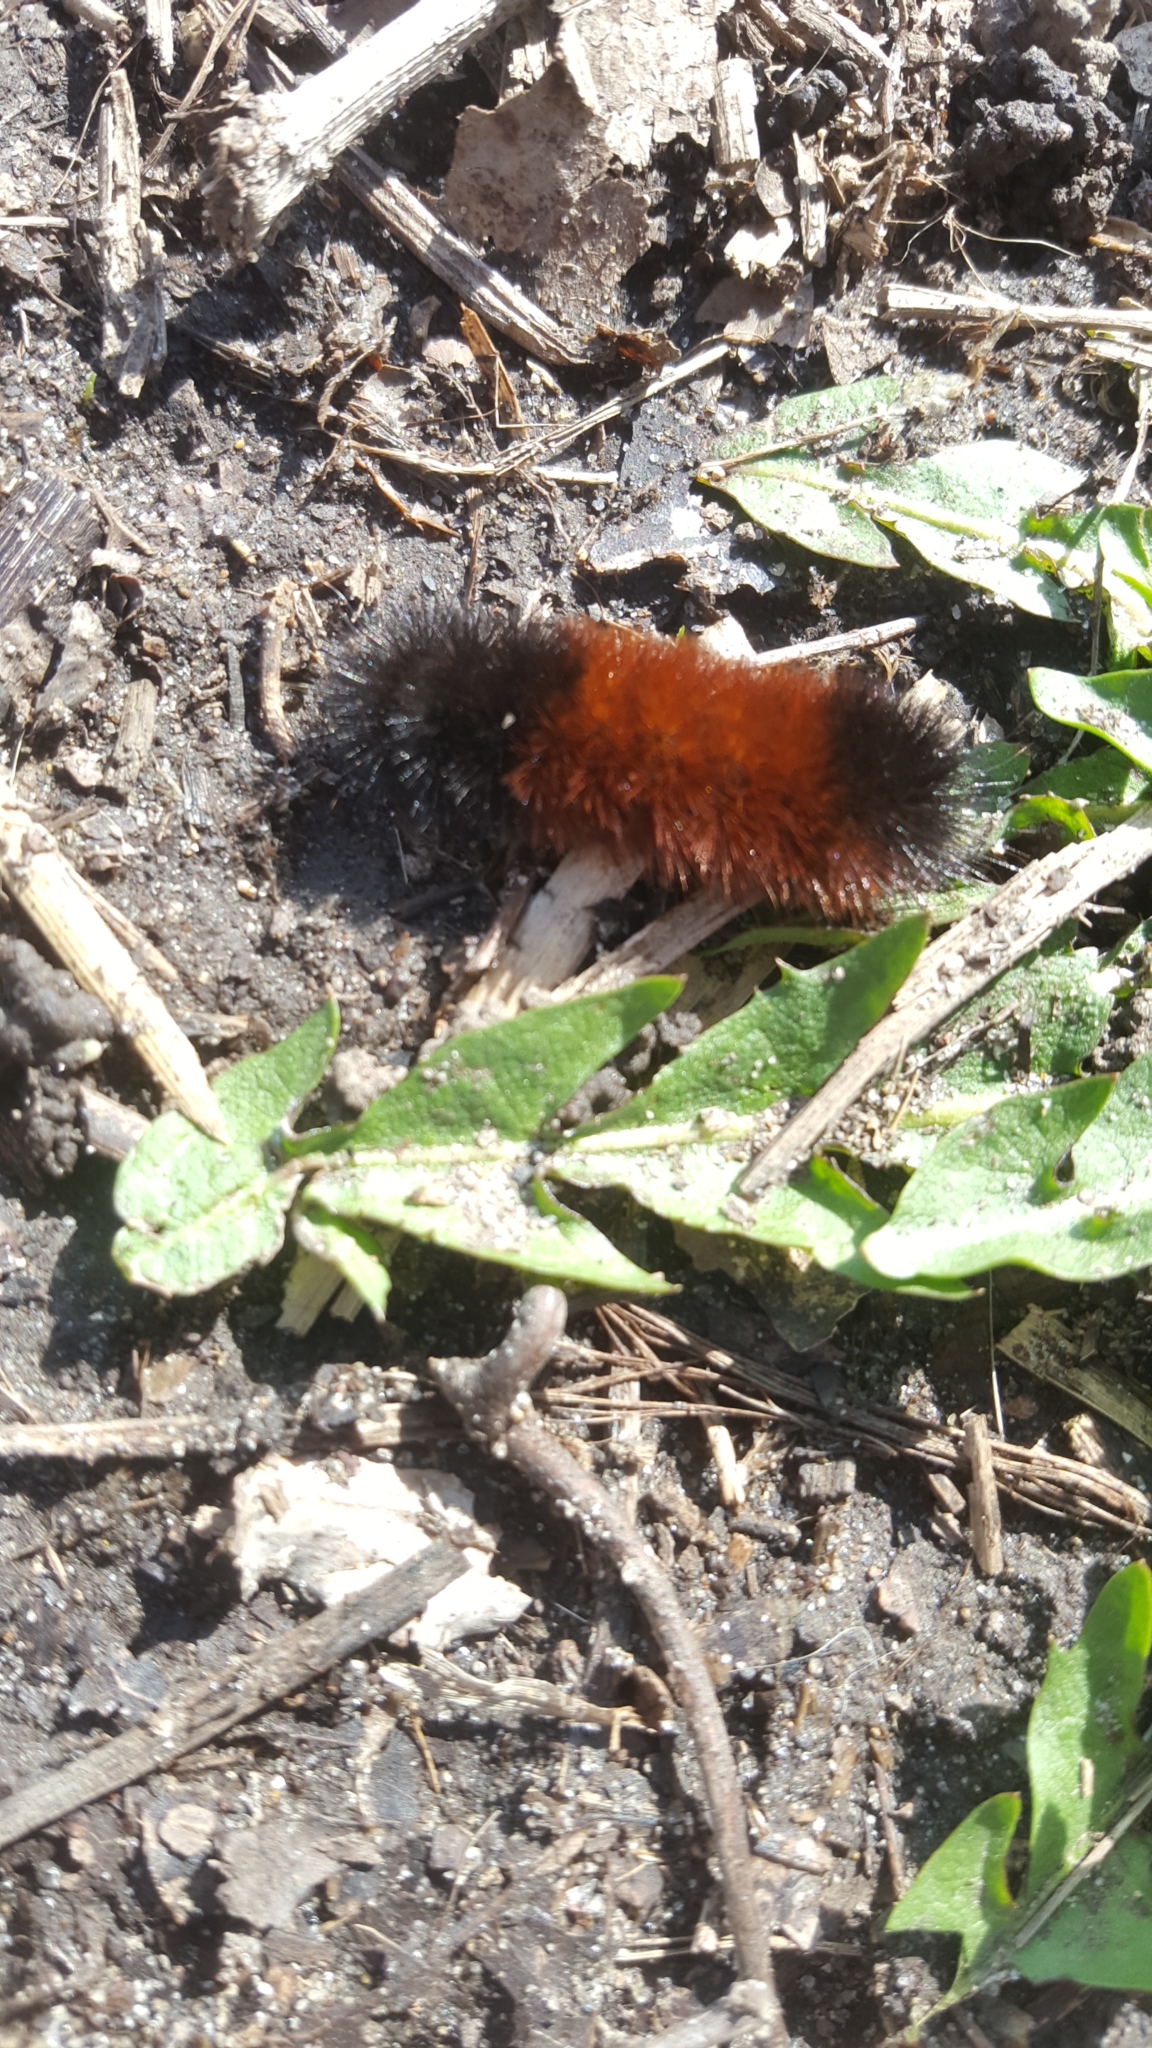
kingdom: Animalia
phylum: Arthropoda
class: Insecta
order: Lepidoptera
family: Erebidae
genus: Pyrrharctia
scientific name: Pyrrharctia isabella
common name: Isabella tiger moth
